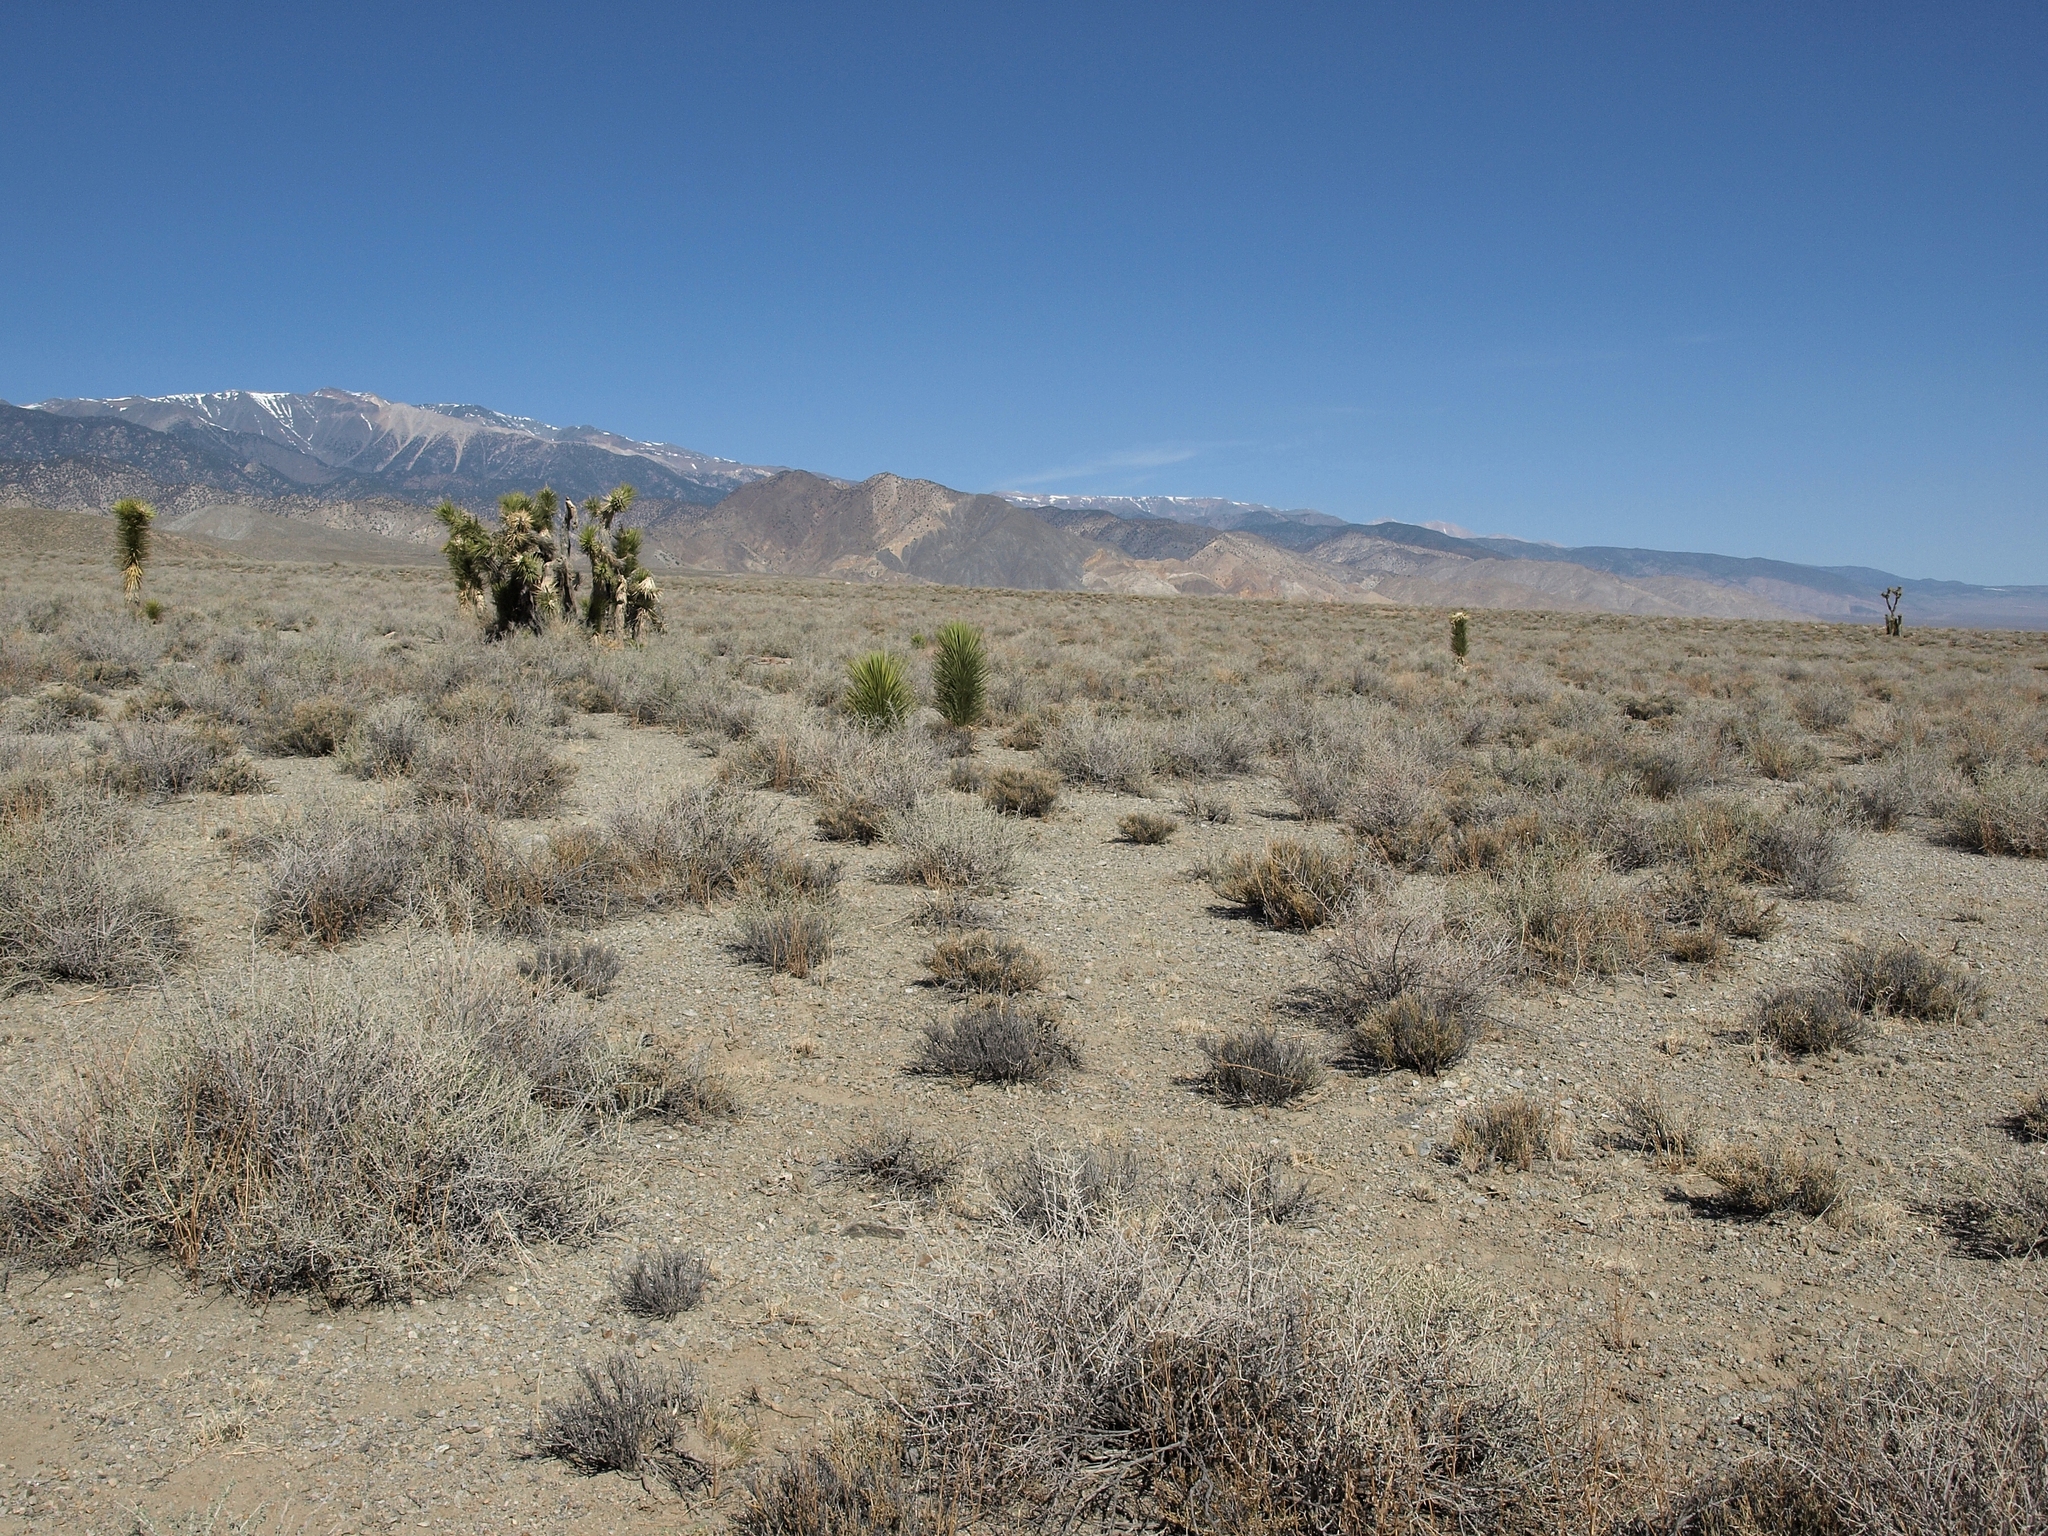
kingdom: Plantae
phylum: Tracheophyta
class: Liliopsida
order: Asparagales
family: Asparagaceae
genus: Yucca
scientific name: Yucca brevifolia
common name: Joshua tree
